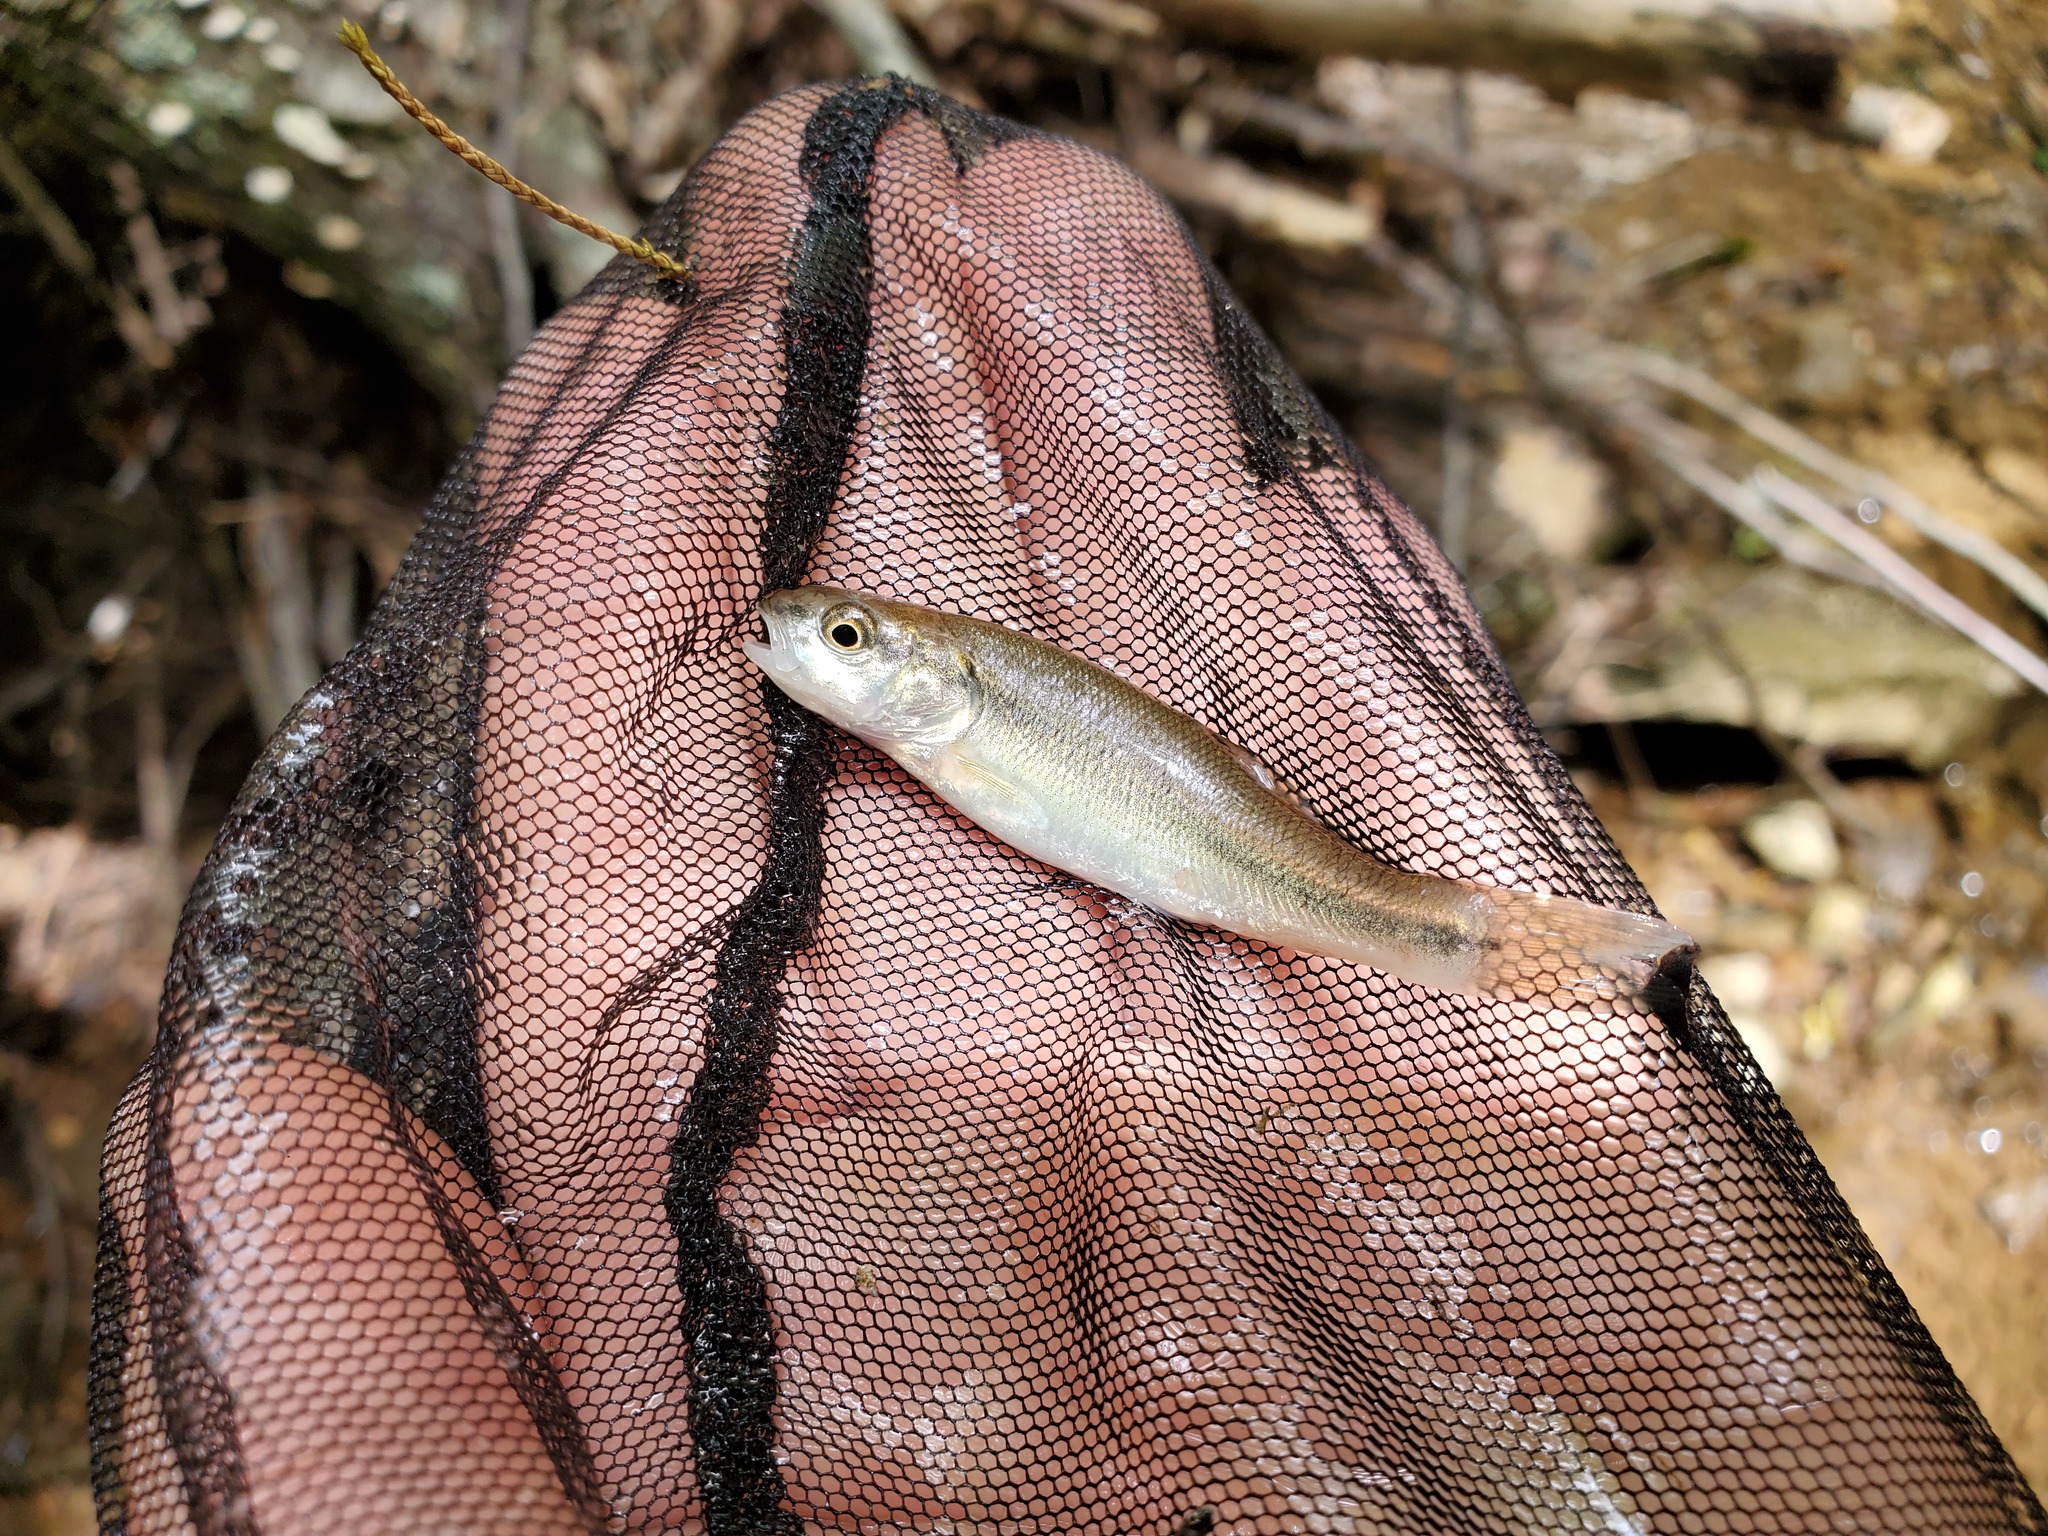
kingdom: Animalia
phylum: Chordata
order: Cypriniformes
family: Cyprinidae
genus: Semotilus
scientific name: Semotilus atromaculatus
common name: Creek chub
